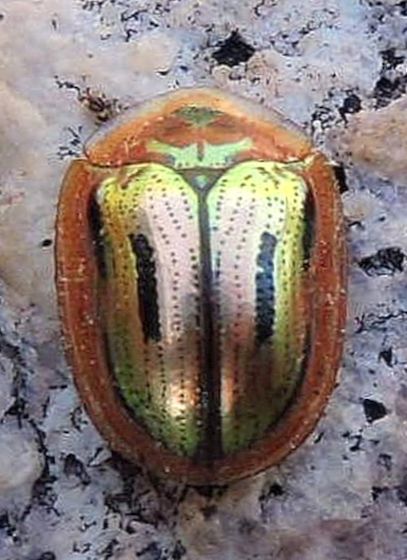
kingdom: Animalia
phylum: Arthropoda
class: Insecta
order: Coleoptera
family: Chrysomelidae
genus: Jonthonota
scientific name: Jonthonota mexicana
